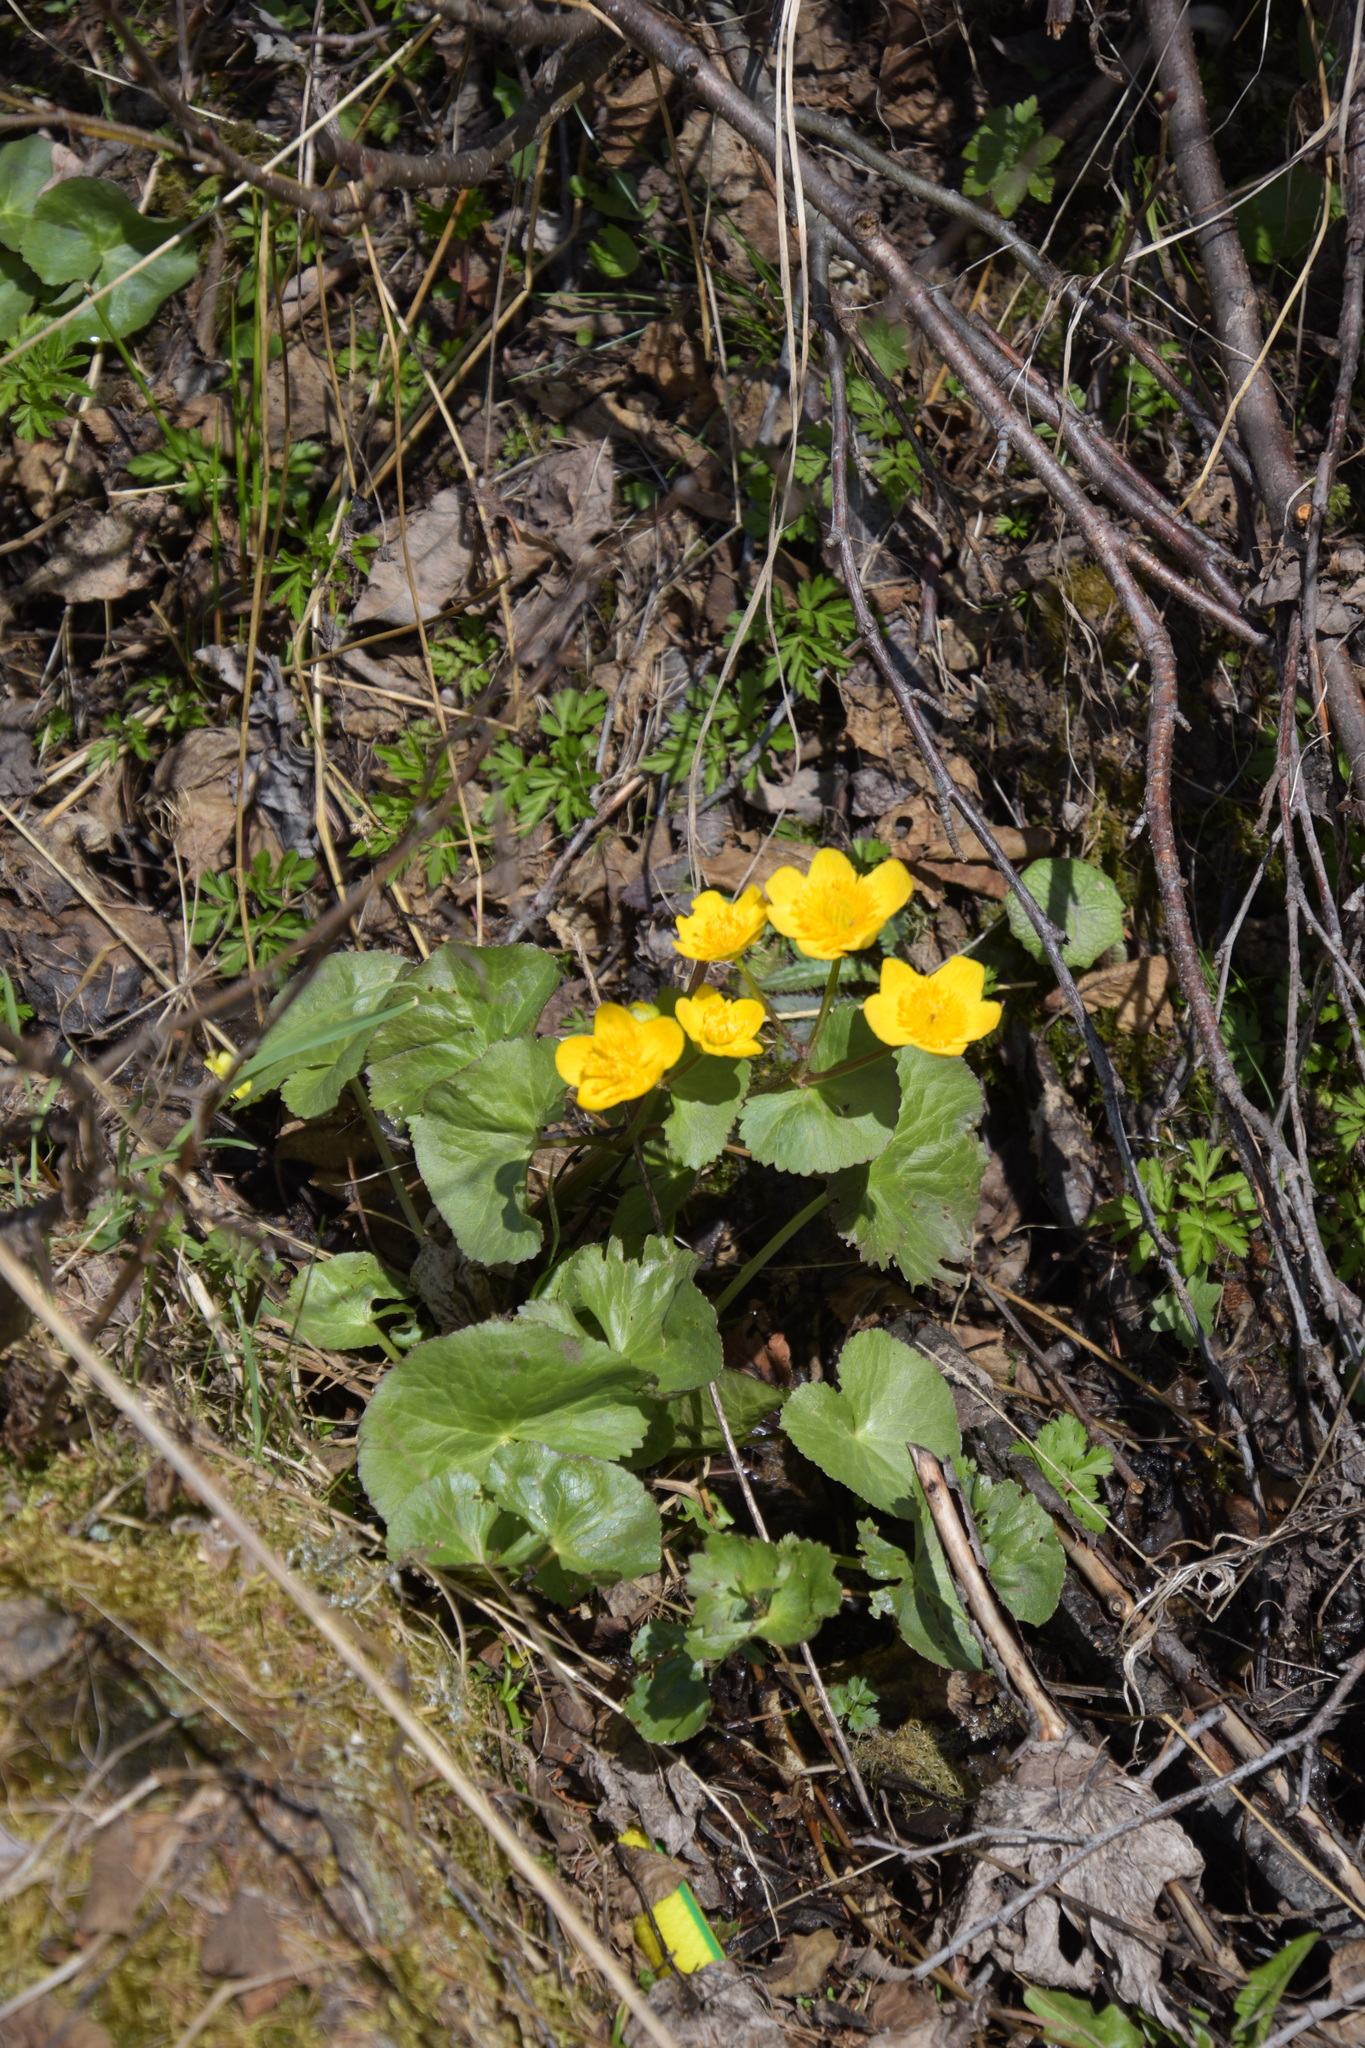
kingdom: Plantae
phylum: Tracheophyta
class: Magnoliopsida
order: Ranunculales
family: Ranunculaceae
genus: Caltha
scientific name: Caltha palustris
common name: Marsh marigold
